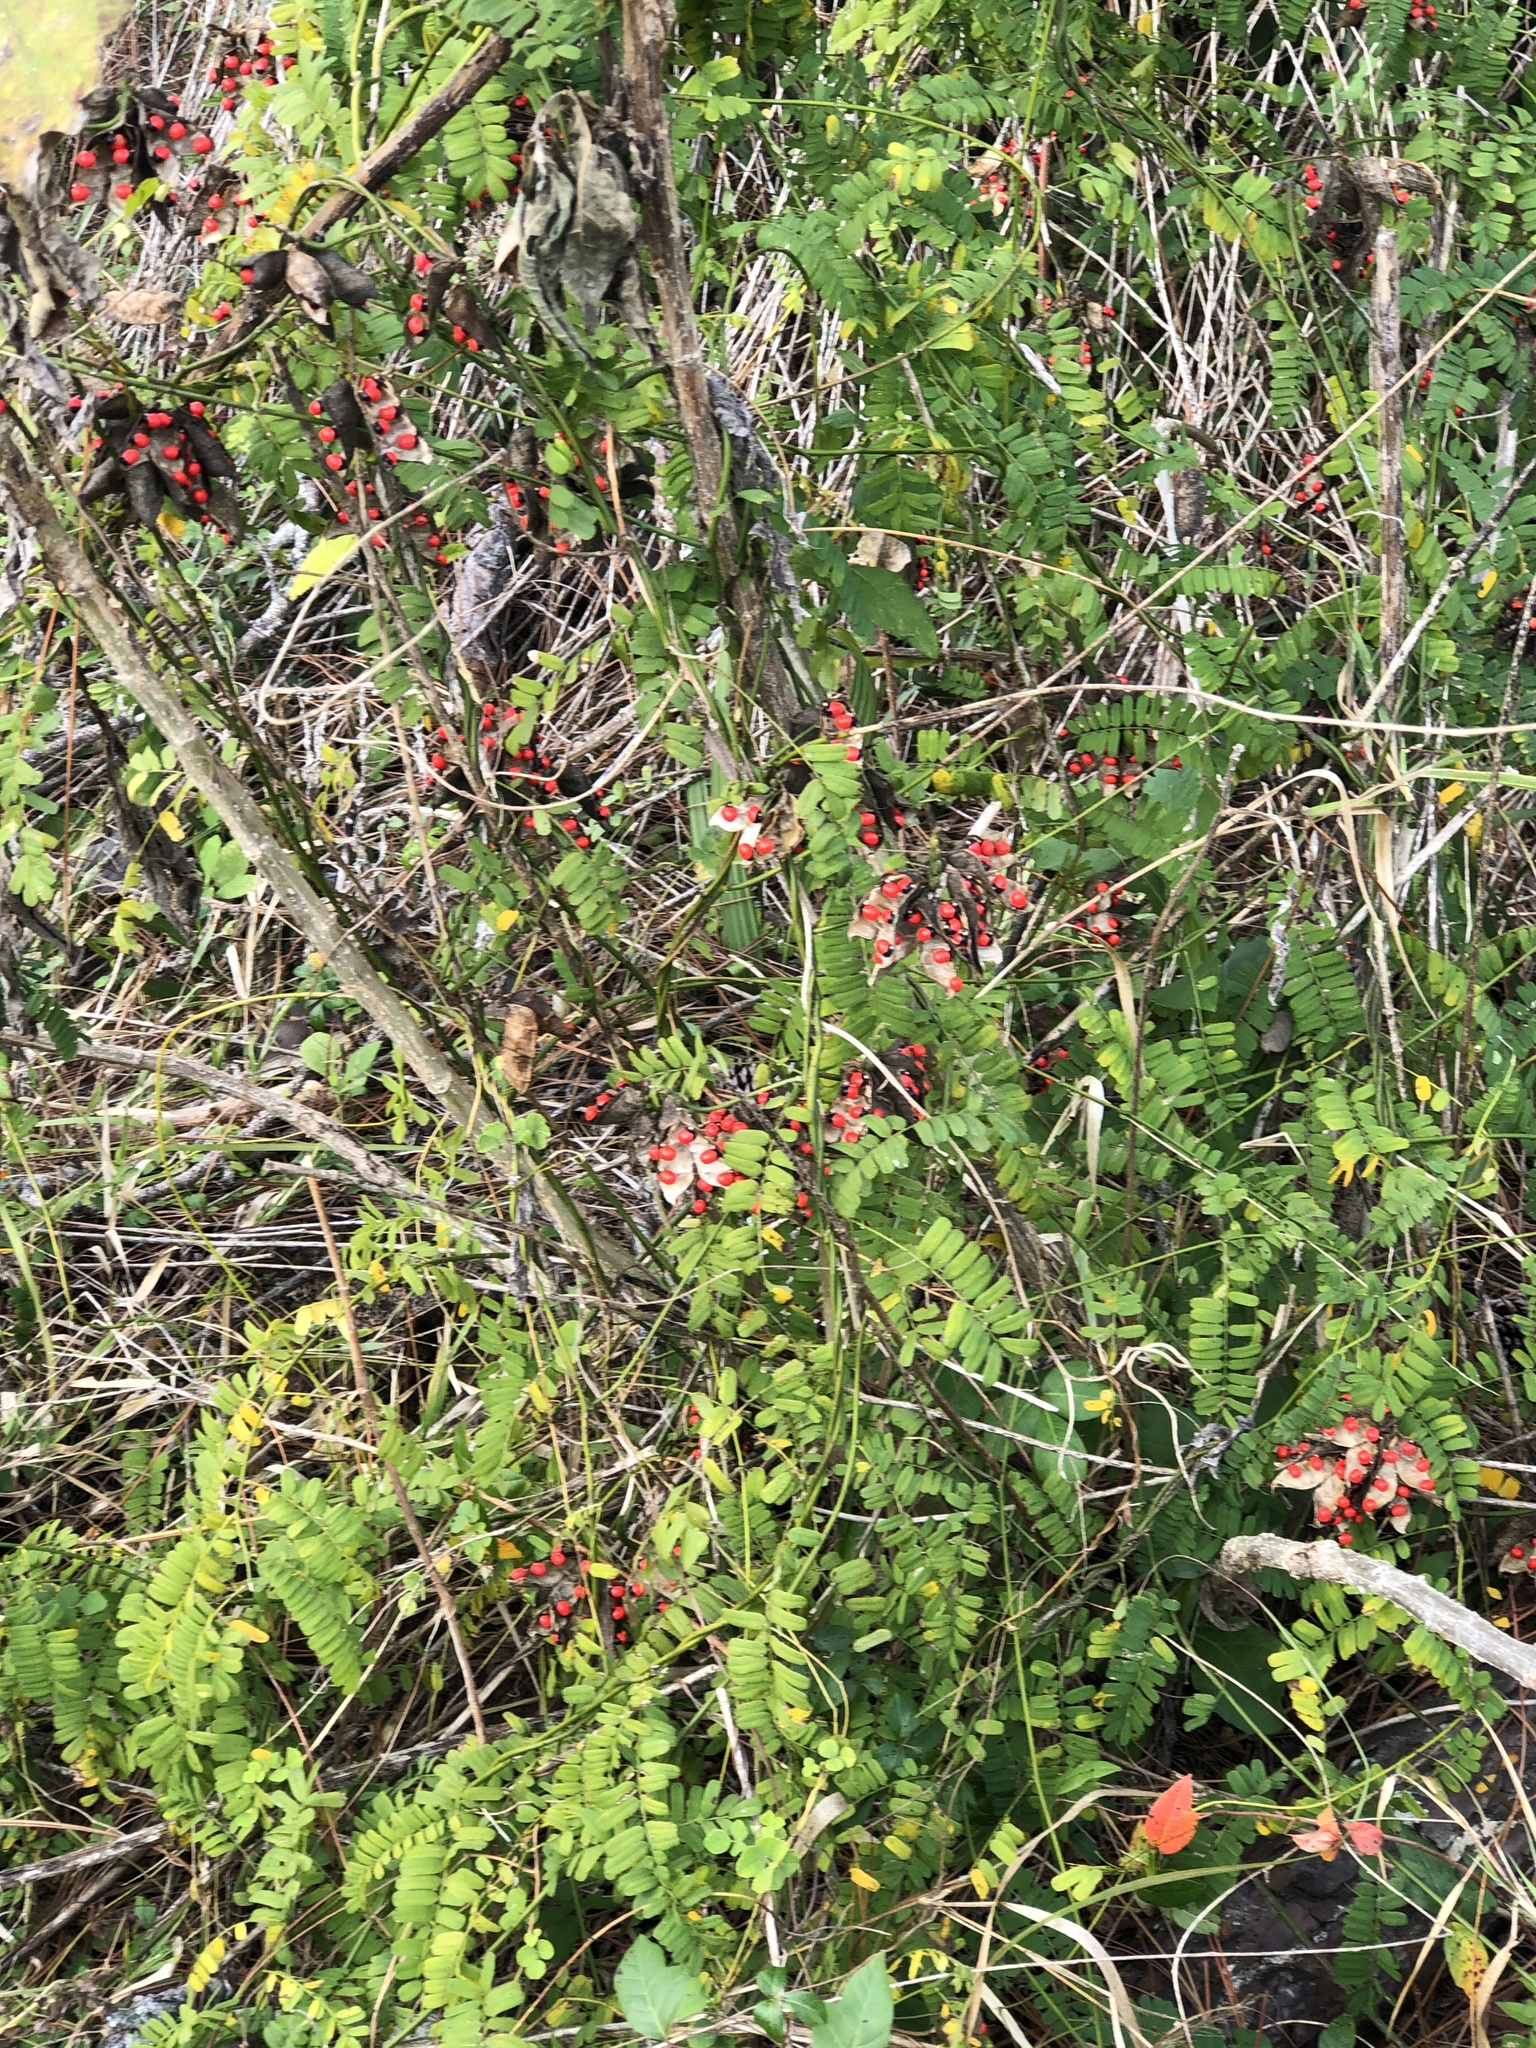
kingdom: Plantae
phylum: Tracheophyta
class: Magnoliopsida
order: Fabales
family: Fabaceae
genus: Abrus
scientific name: Abrus precatorius
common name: Rosarypea
